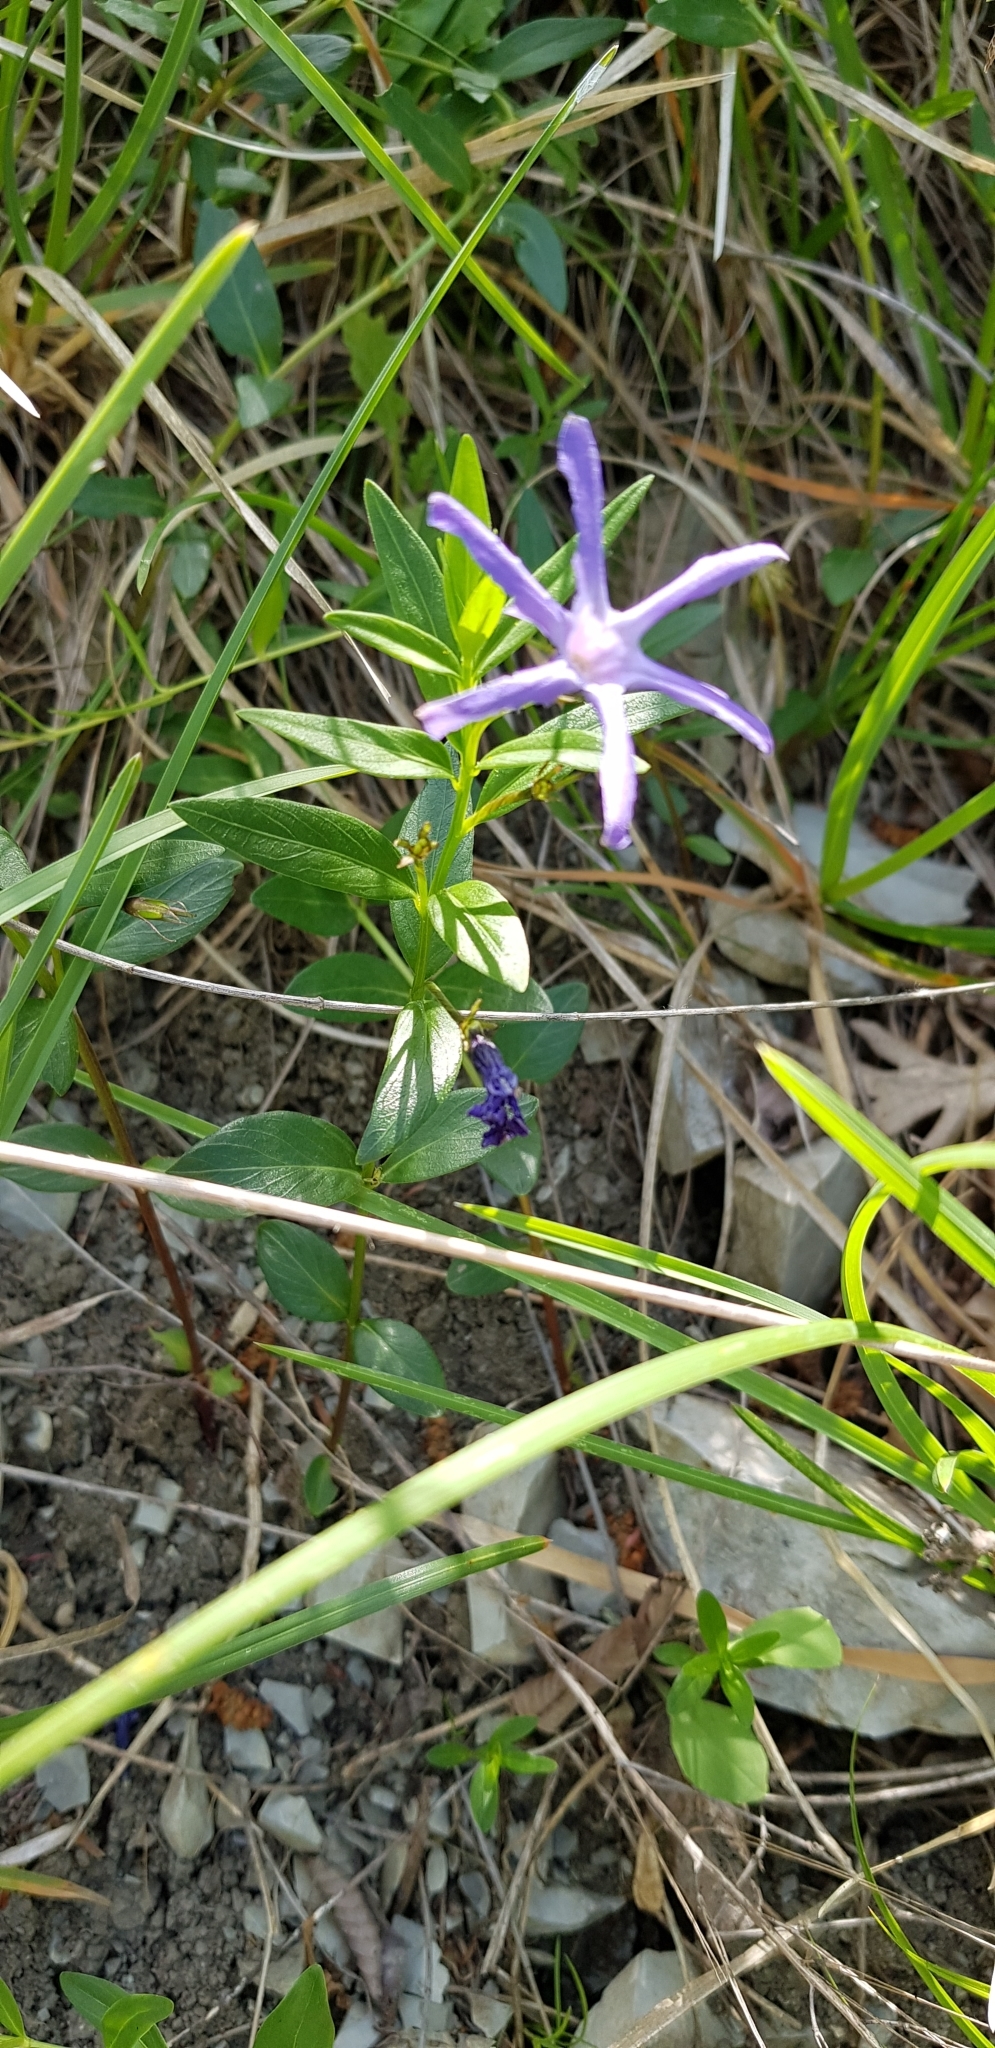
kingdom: Plantae
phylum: Tracheophyta
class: Magnoliopsida
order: Gentianales
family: Apocynaceae
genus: Vinca
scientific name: Vinca herbacea
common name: Herbaceous periwinkle
